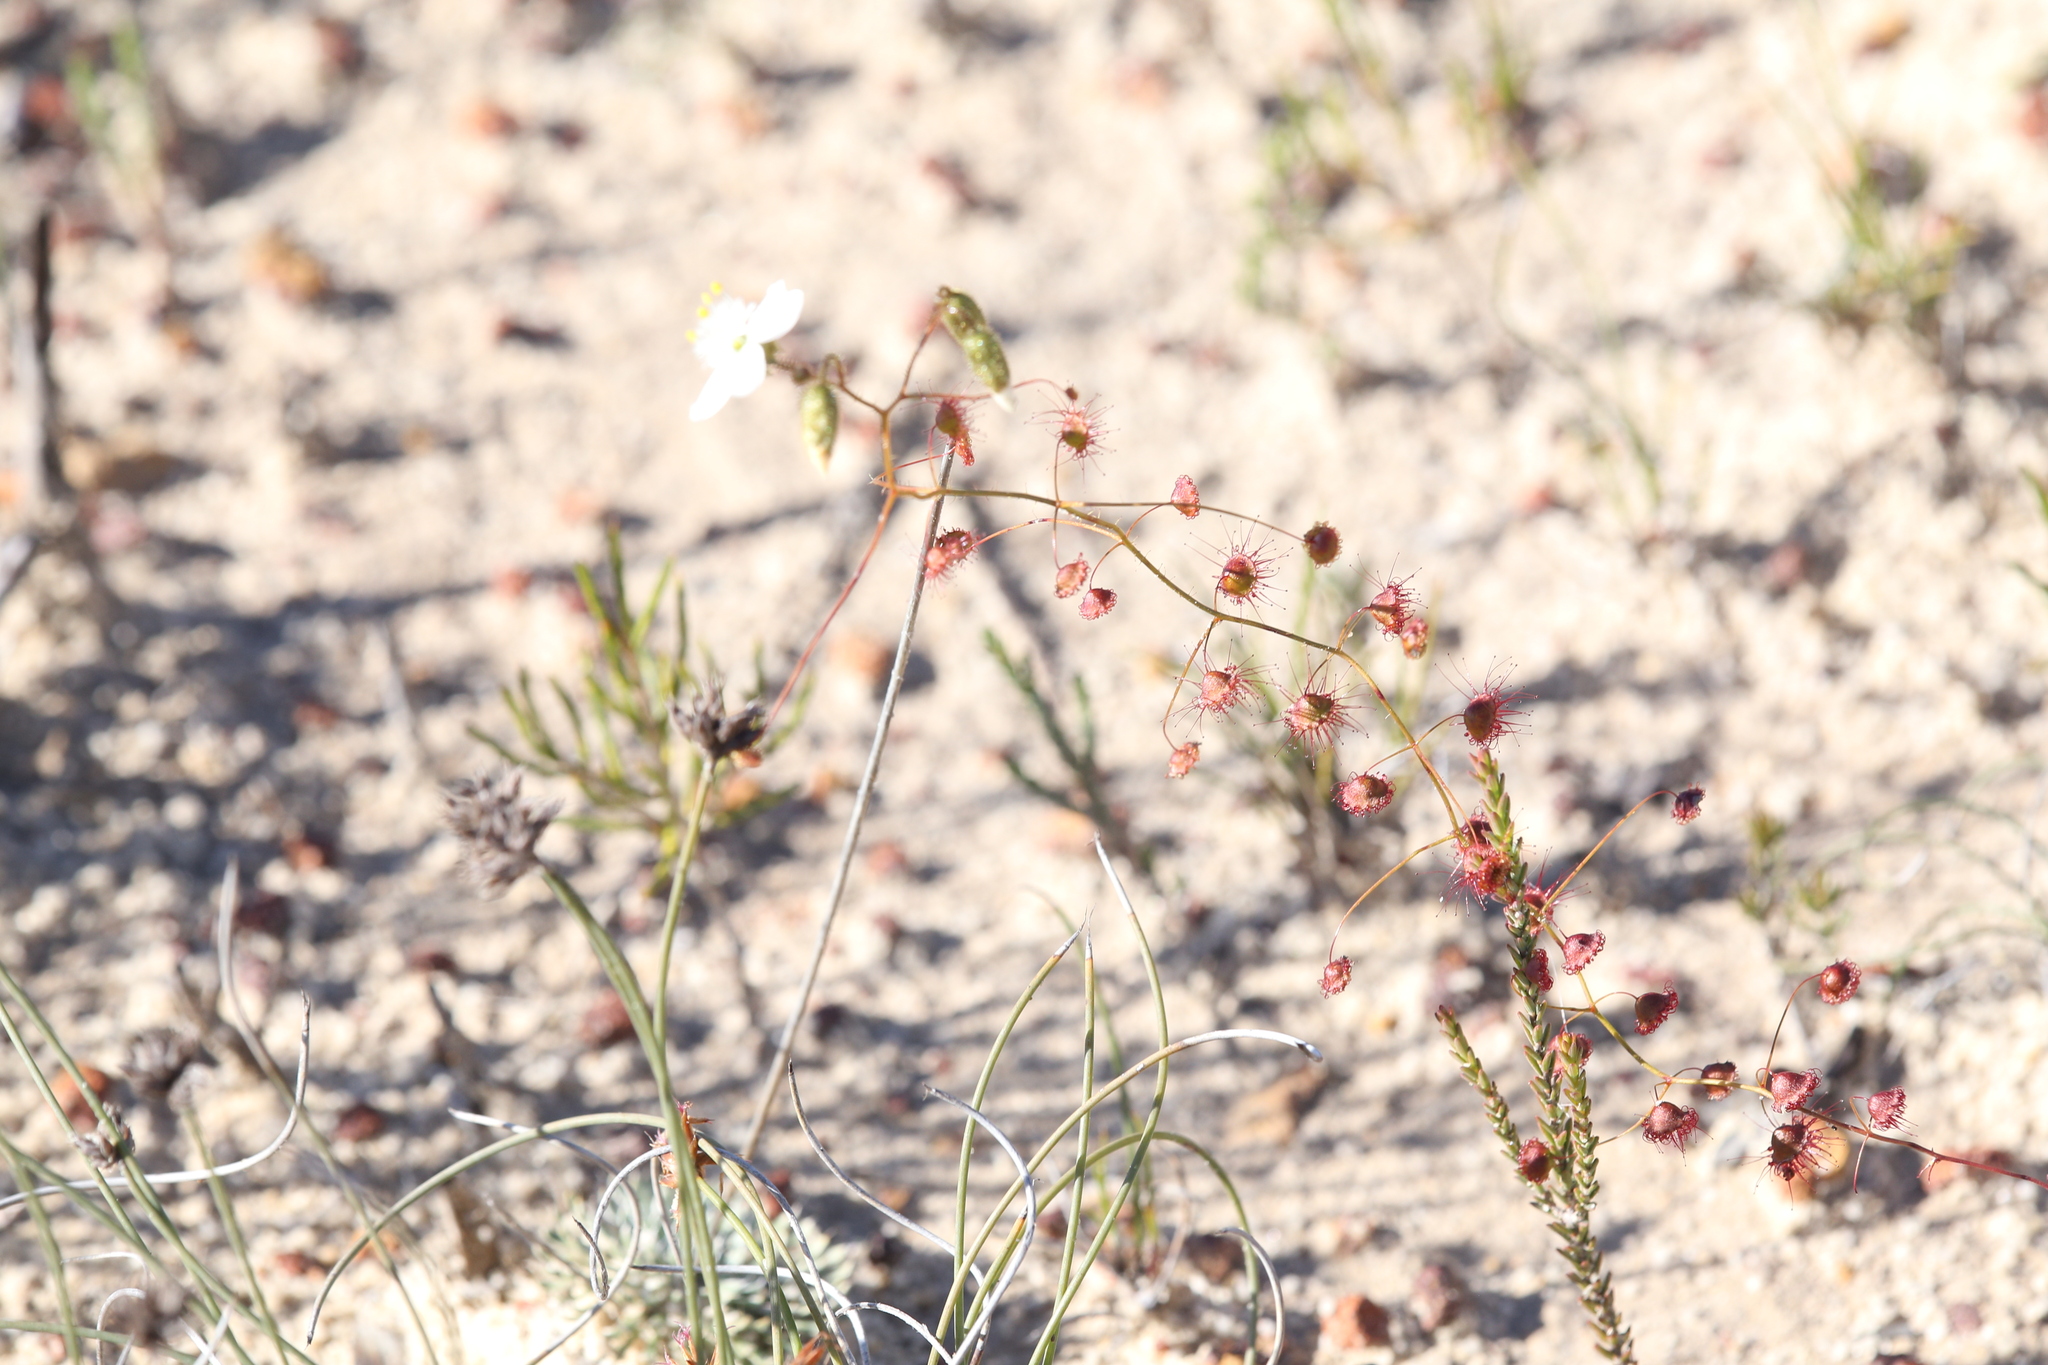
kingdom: Plantae
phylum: Tracheophyta
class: Magnoliopsida
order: Caryophyllales
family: Droseraceae
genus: Drosera
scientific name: Drosera macrantha
